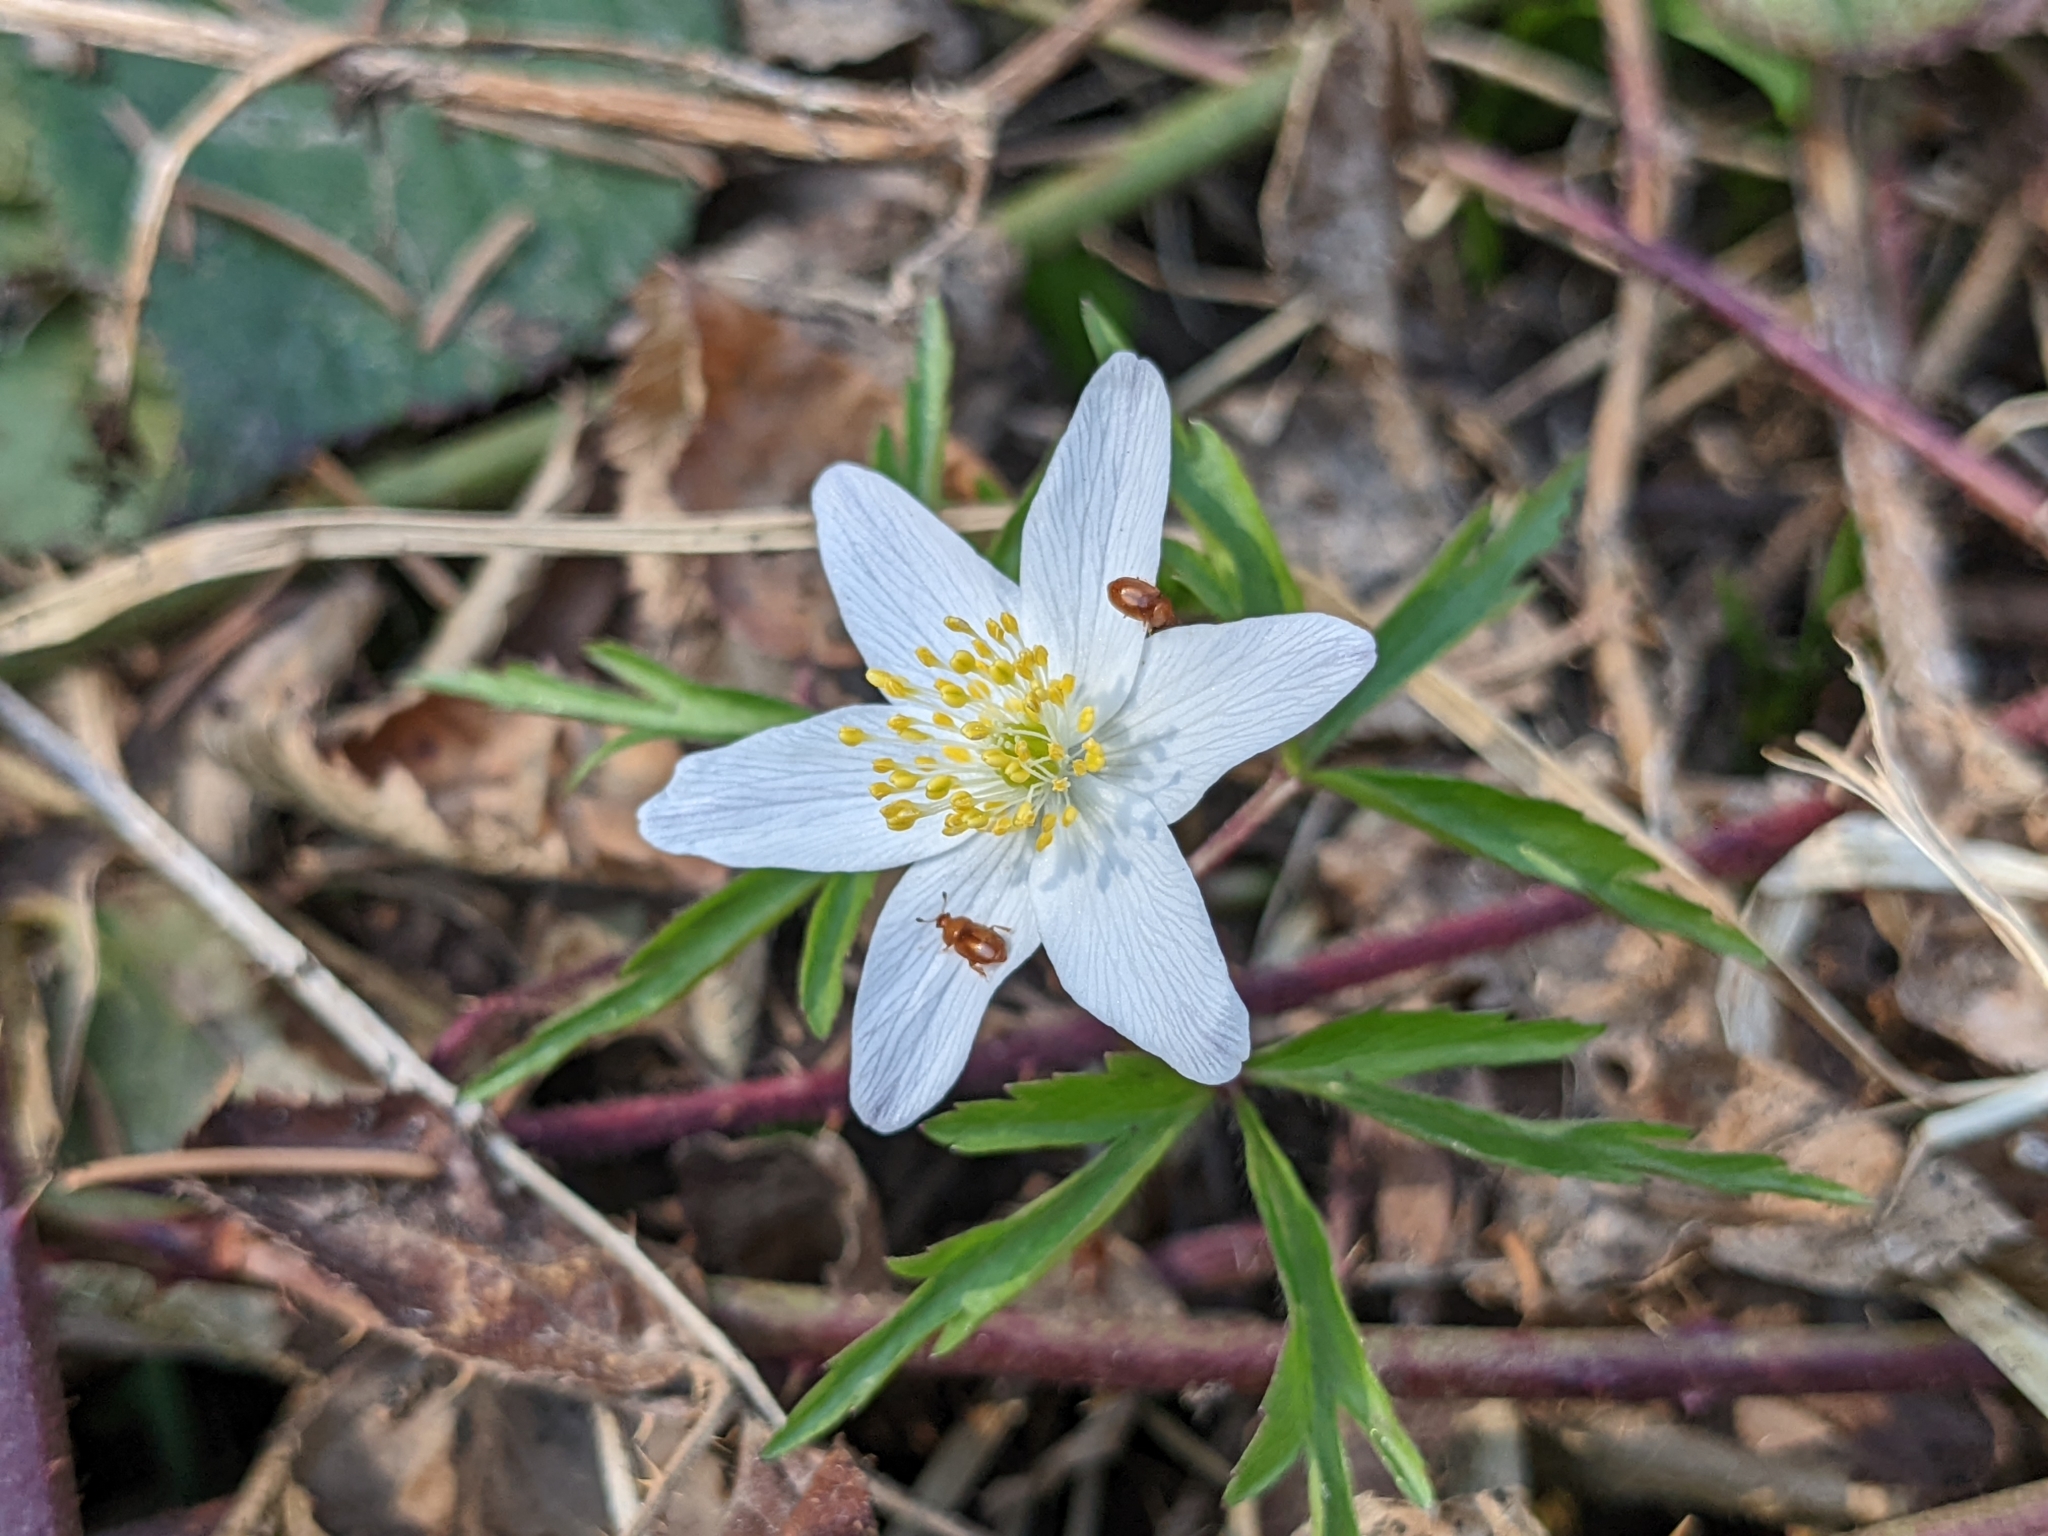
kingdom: Plantae
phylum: Tracheophyta
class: Magnoliopsida
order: Ranunculales
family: Ranunculaceae
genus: Anemone
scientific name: Anemone nemorosa
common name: Wood anemone
